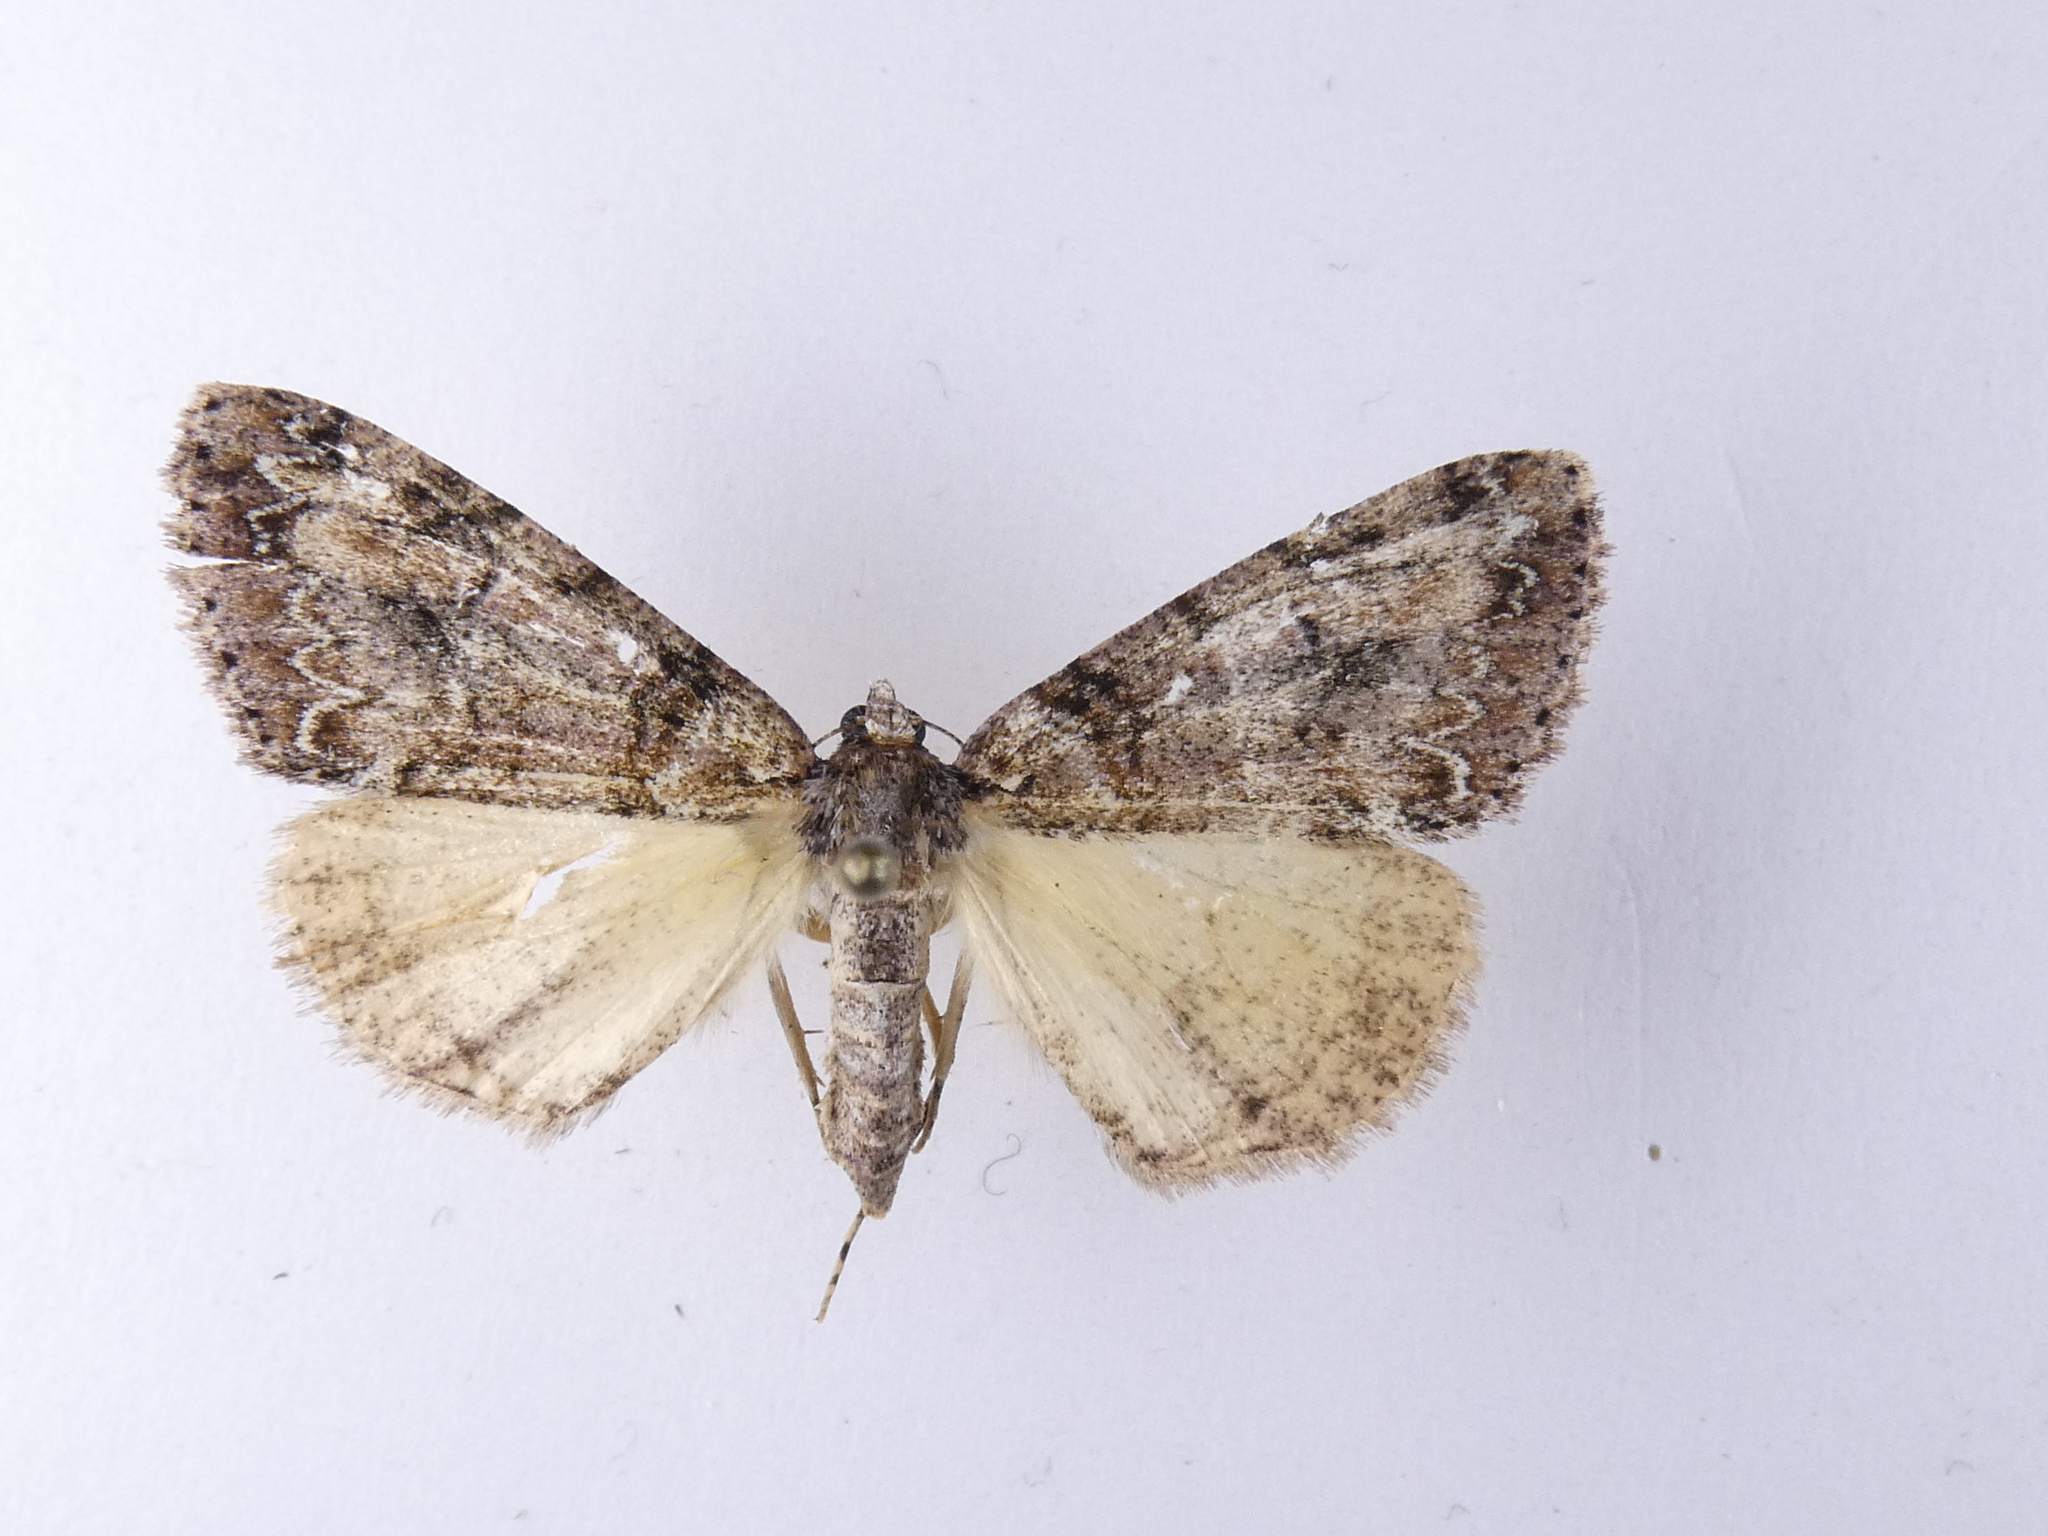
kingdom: Animalia
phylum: Arthropoda
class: Insecta
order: Lepidoptera
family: Geometridae
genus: Pseudocoremia
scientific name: Pseudocoremia suavis
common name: Common forest looper
